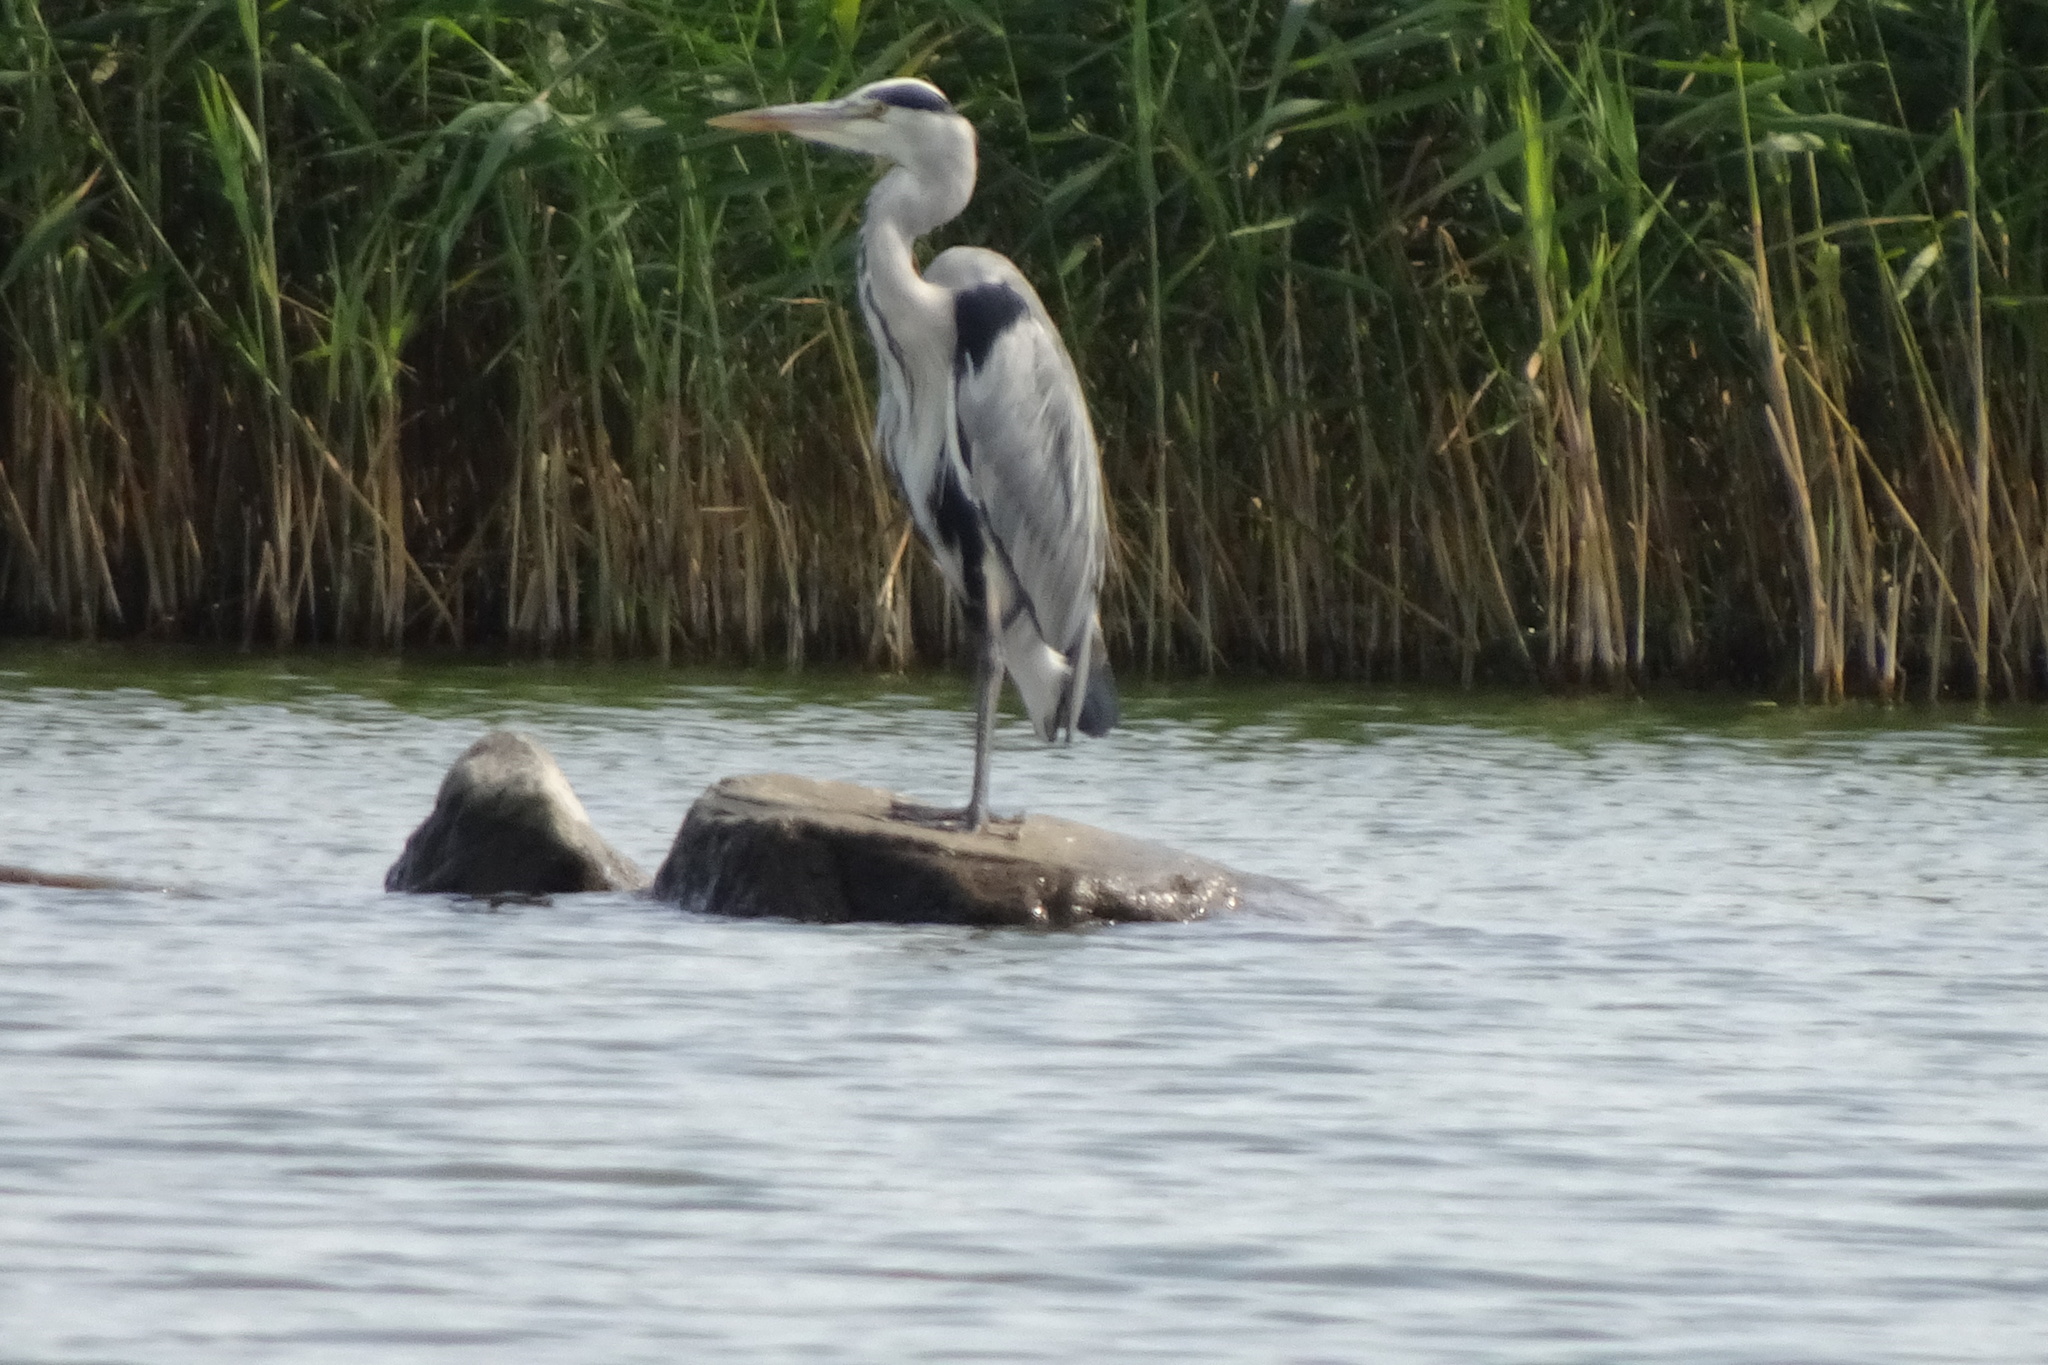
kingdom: Animalia
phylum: Chordata
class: Aves
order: Pelecaniformes
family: Ardeidae
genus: Ardea
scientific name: Ardea cinerea
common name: Grey heron
